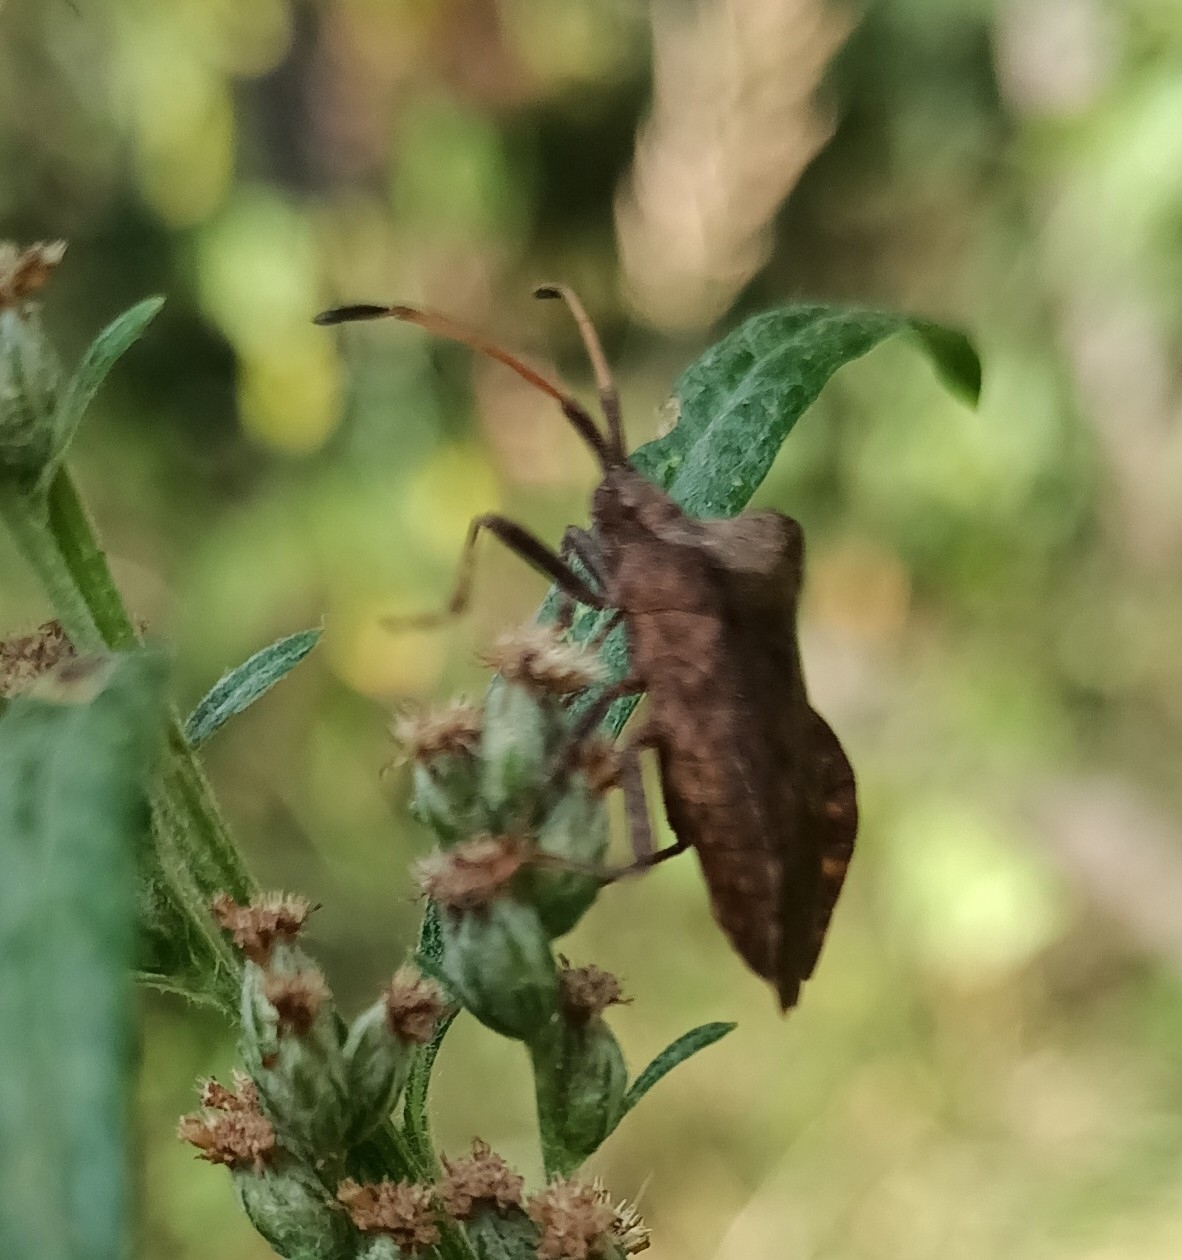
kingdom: Animalia
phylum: Arthropoda
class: Insecta
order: Hemiptera
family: Coreidae
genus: Coreus
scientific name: Coreus marginatus
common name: Dock bug
